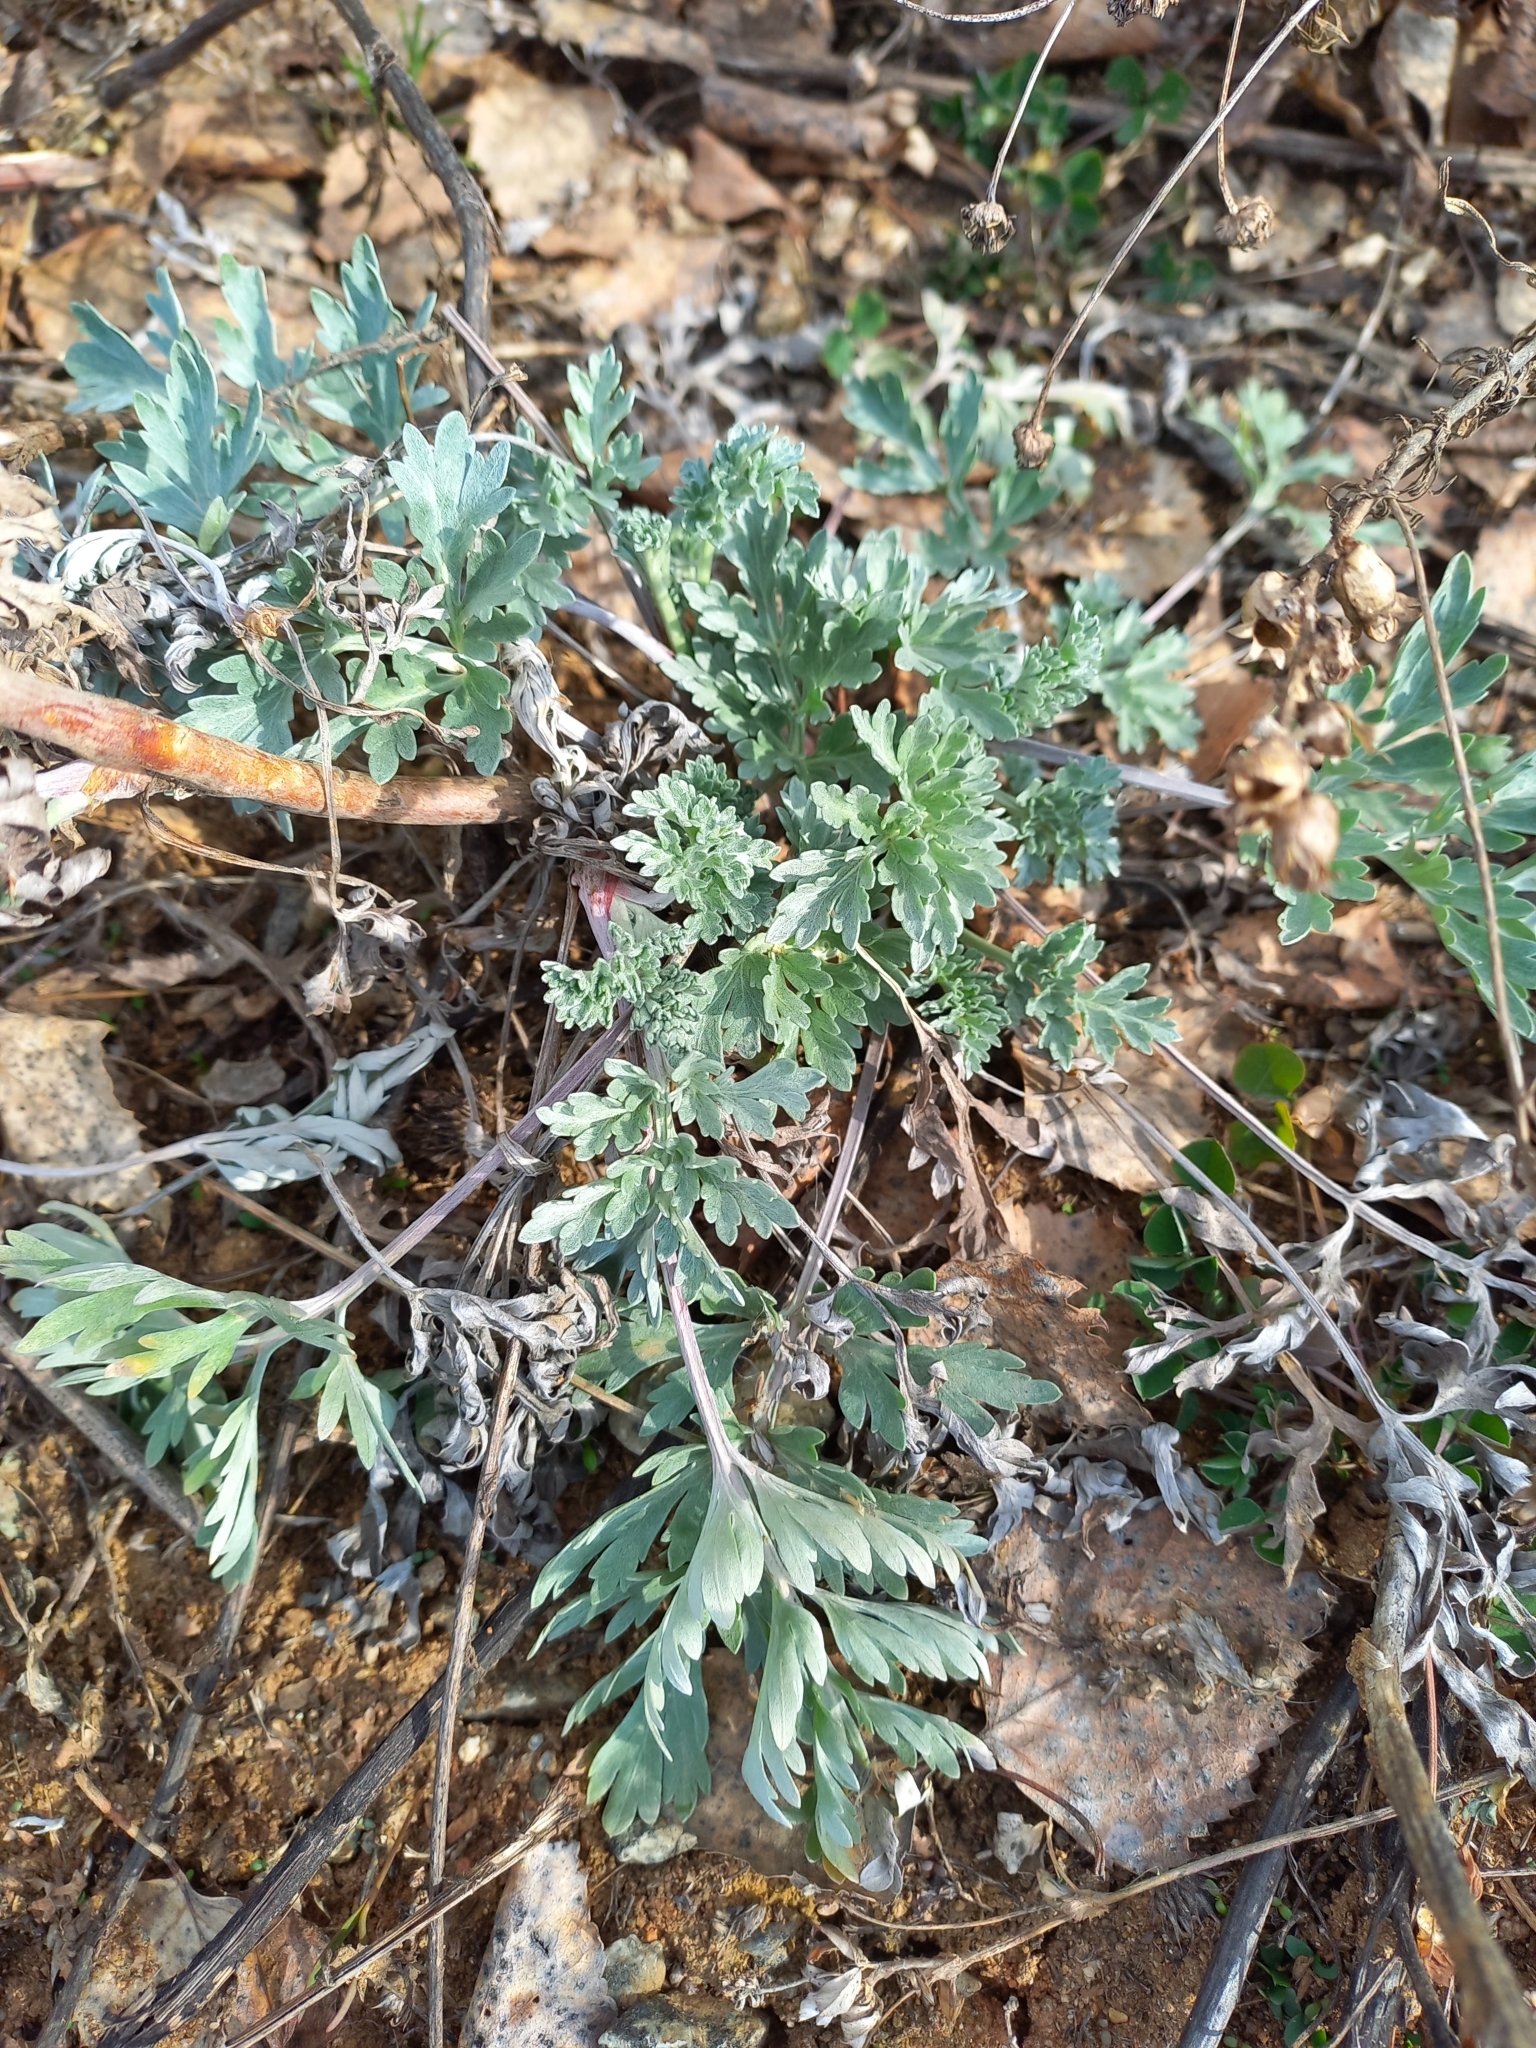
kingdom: Plantae
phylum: Tracheophyta
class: Magnoliopsida
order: Asterales
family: Asteraceae
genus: Artemisia
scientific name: Artemisia absinthium
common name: Wormwood
